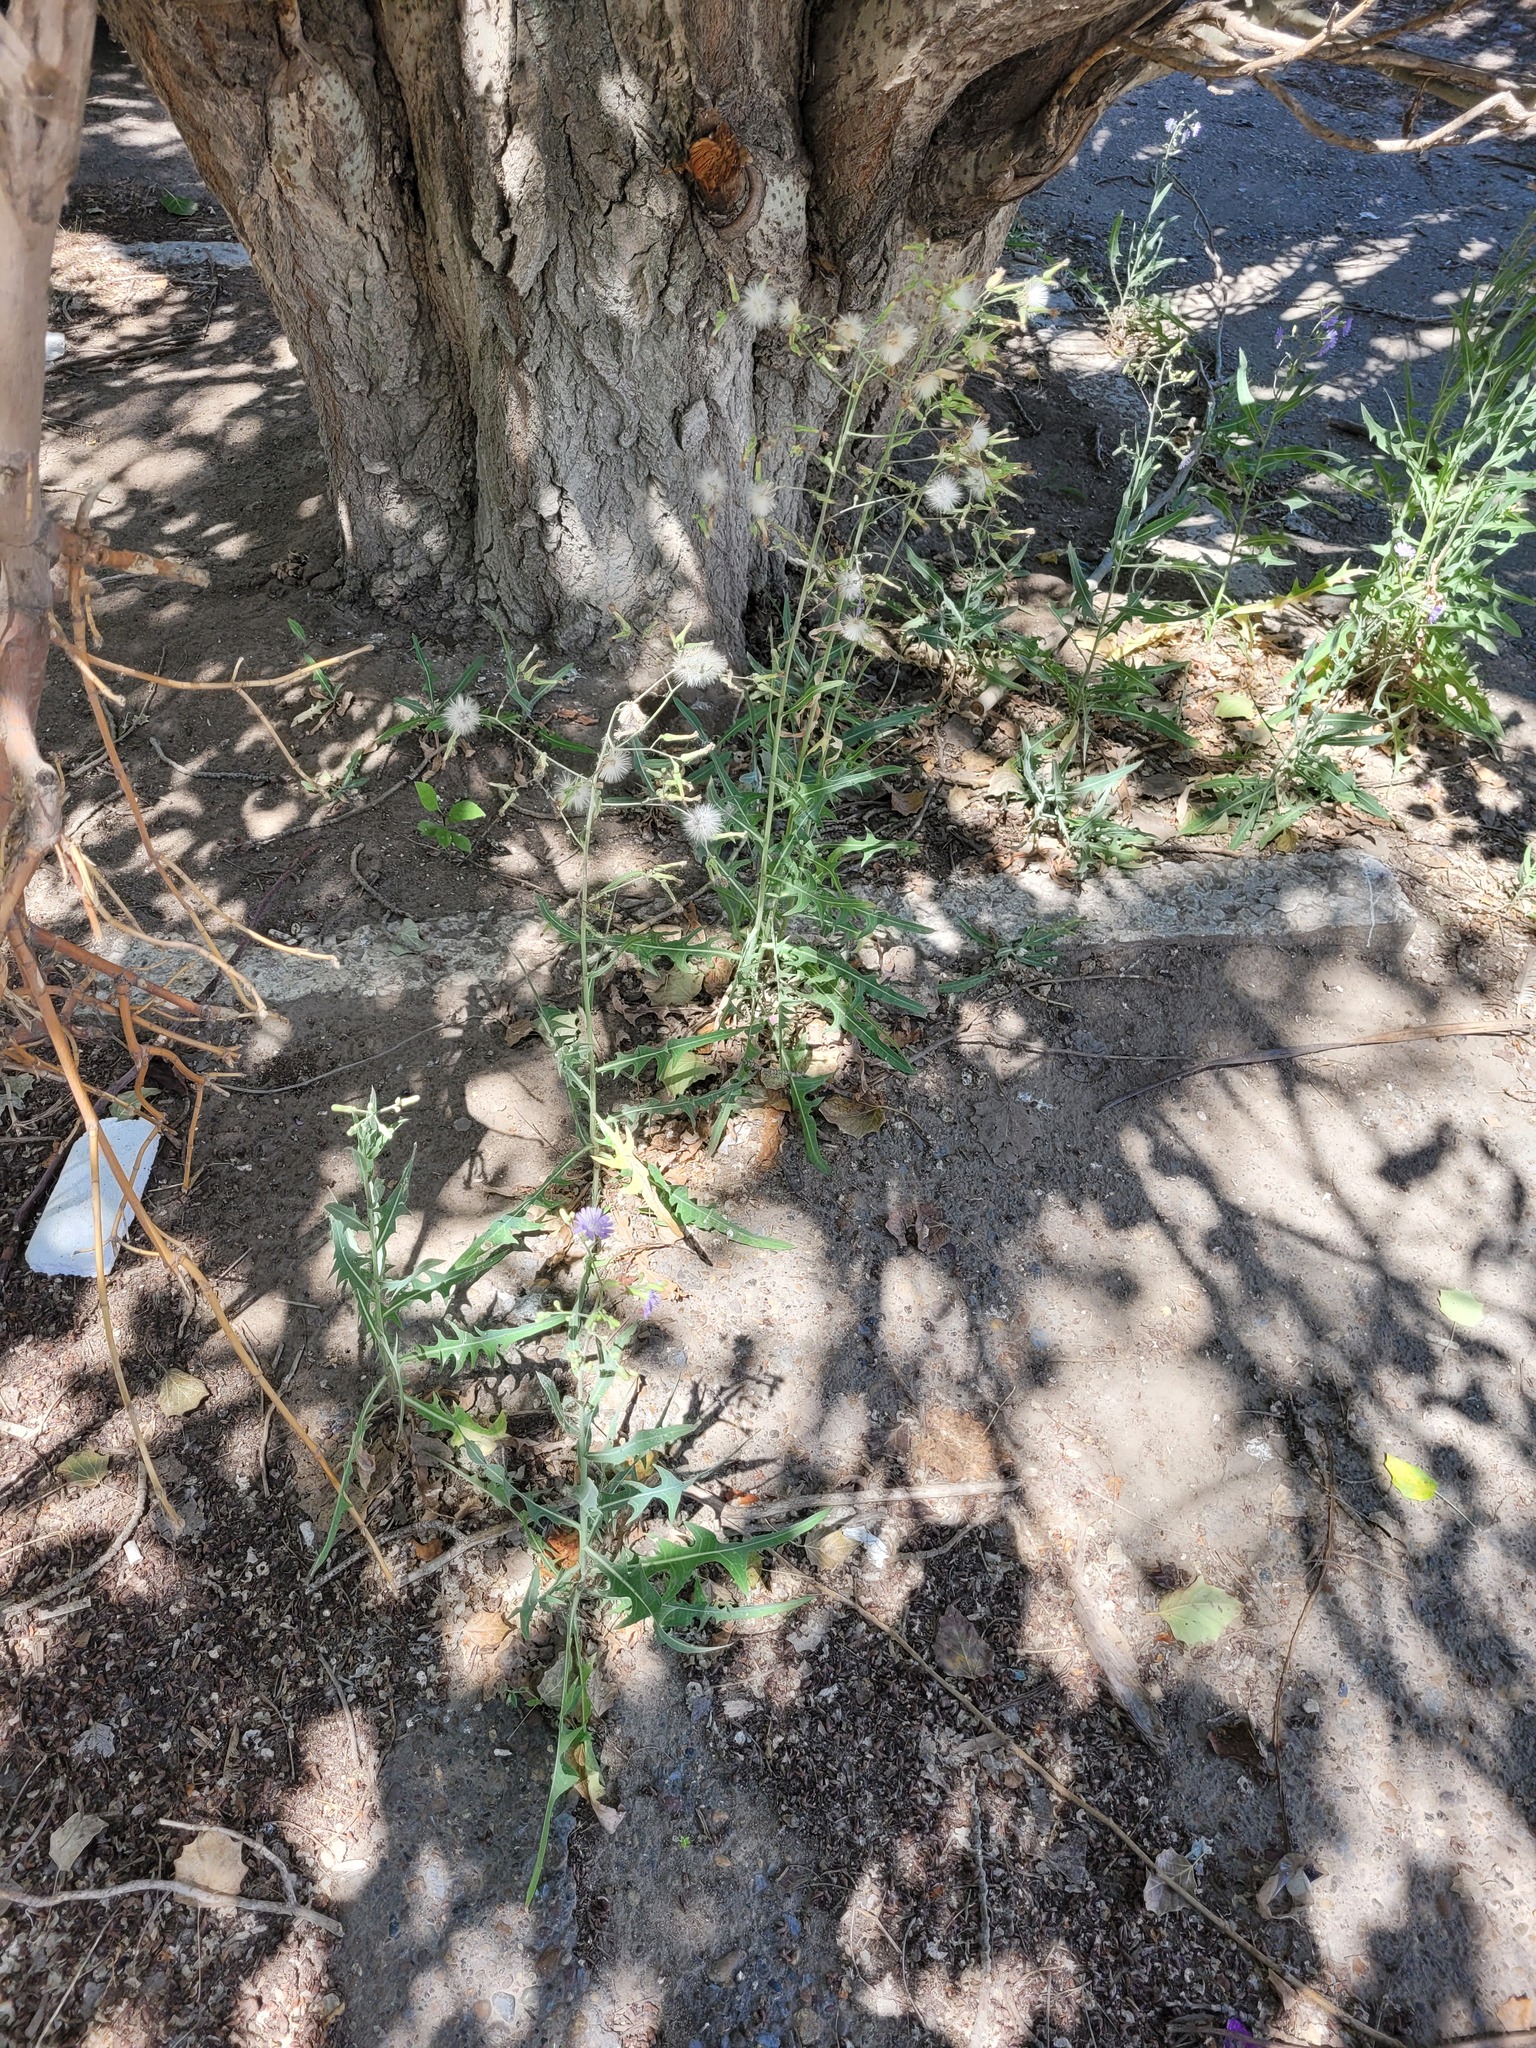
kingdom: Plantae
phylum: Tracheophyta
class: Magnoliopsida
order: Asterales
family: Asteraceae
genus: Lactuca
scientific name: Lactuca tatarica
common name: Blue lettuce
